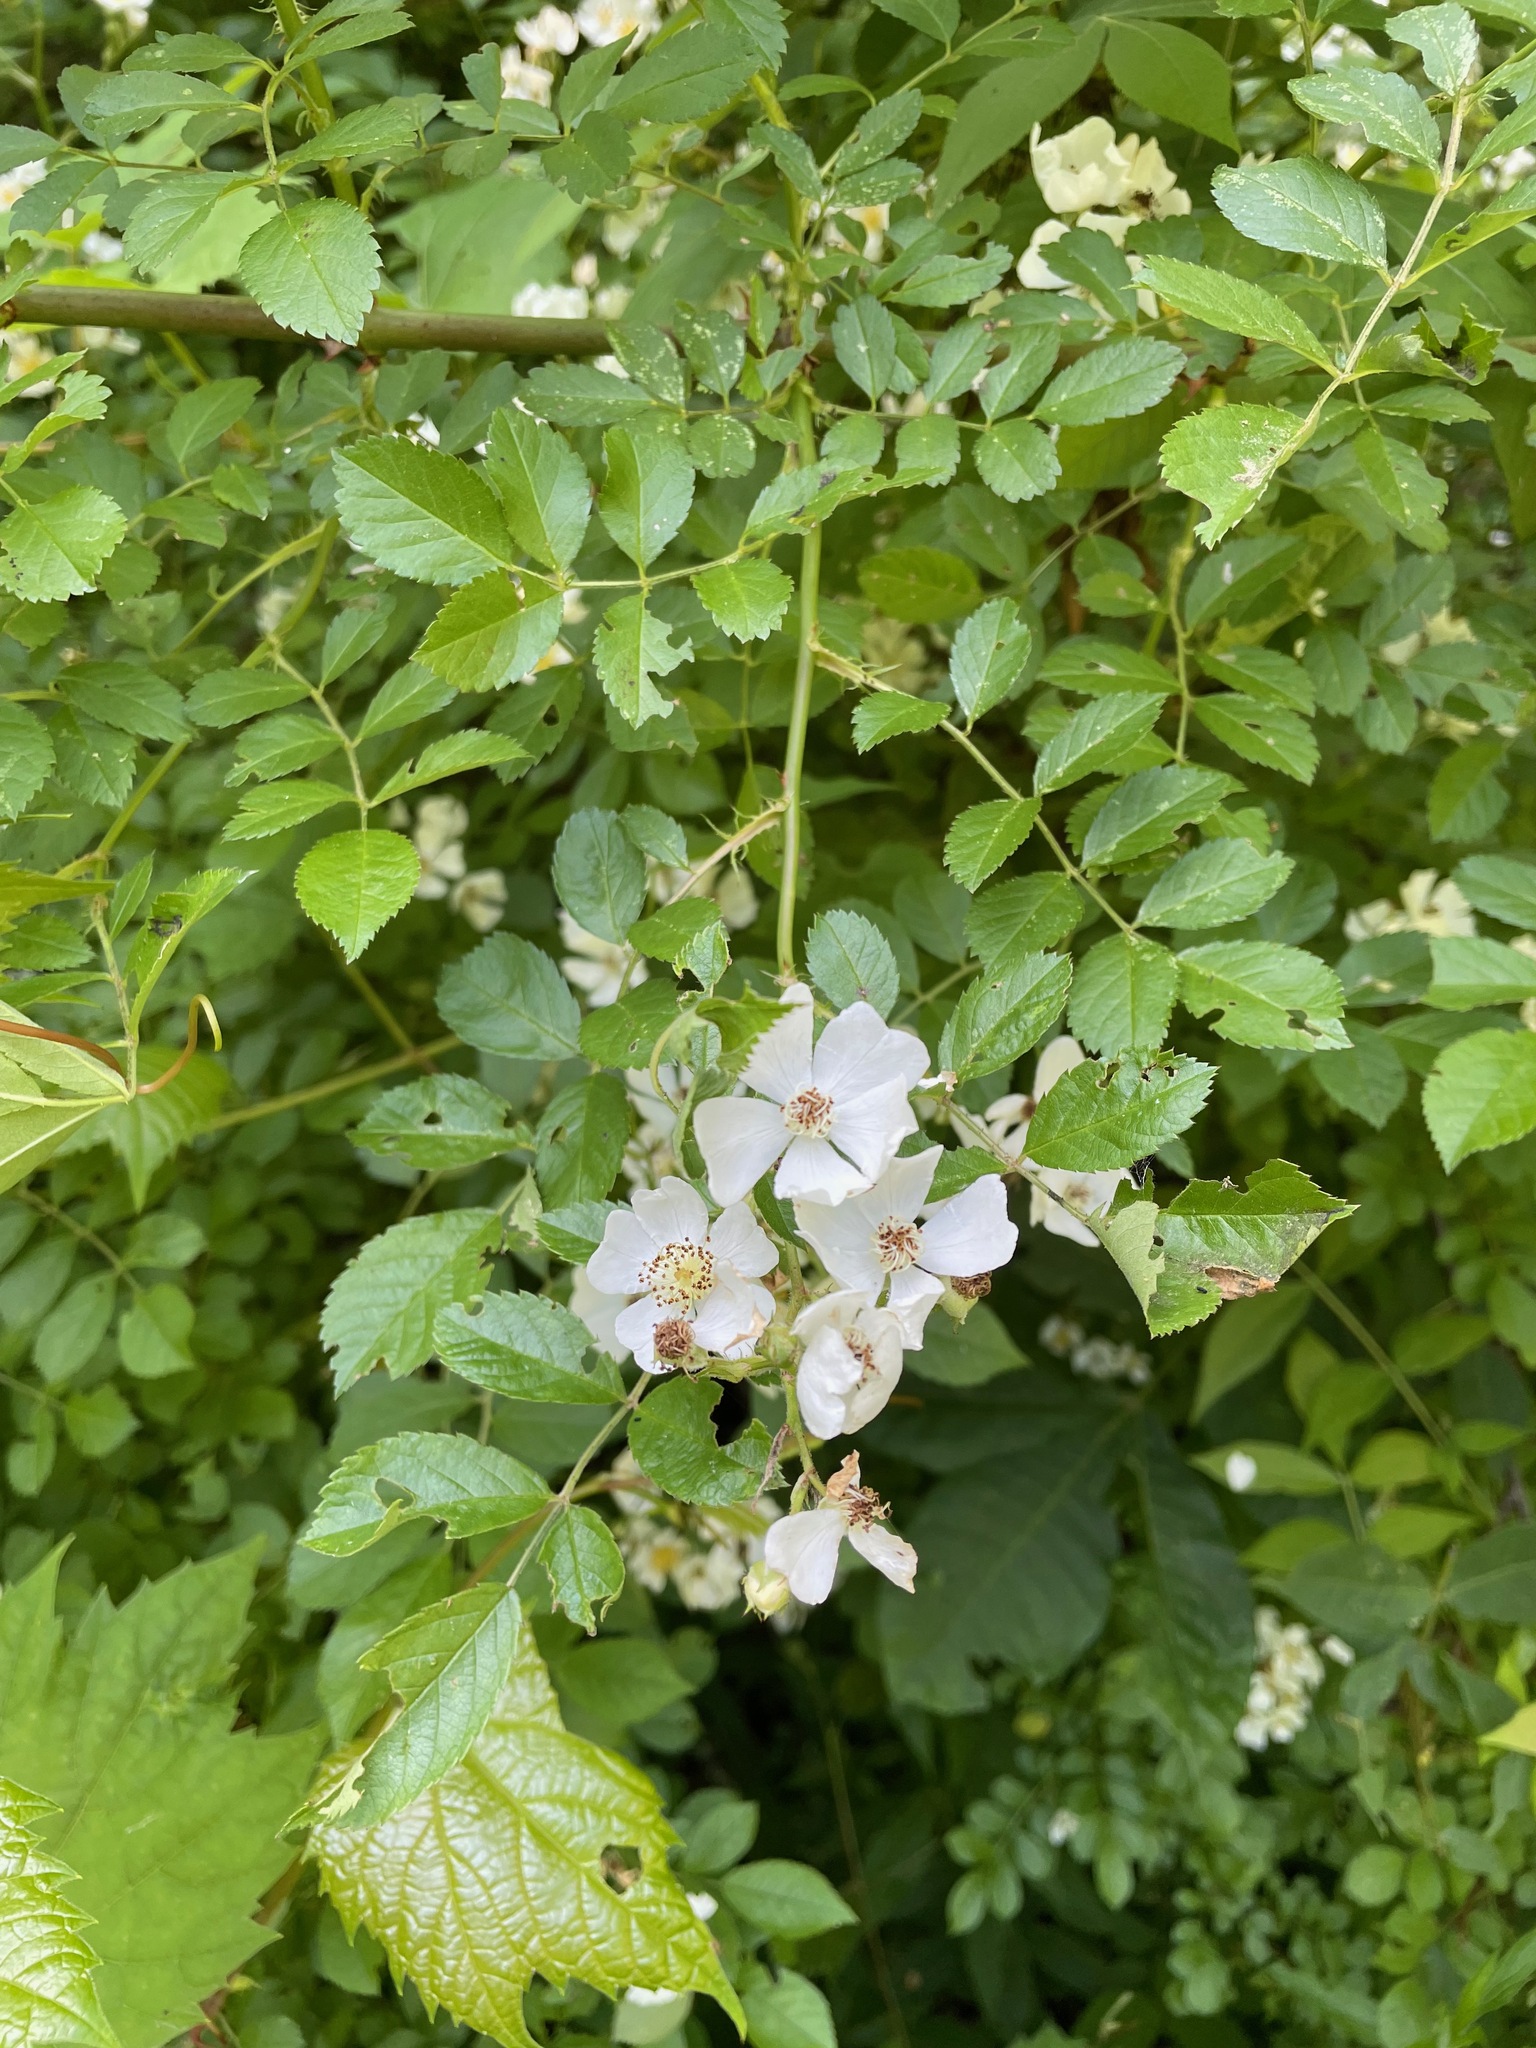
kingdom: Plantae
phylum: Tracheophyta
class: Magnoliopsida
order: Rosales
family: Rosaceae
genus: Rosa
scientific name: Rosa multiflora
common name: Multiflora rose
